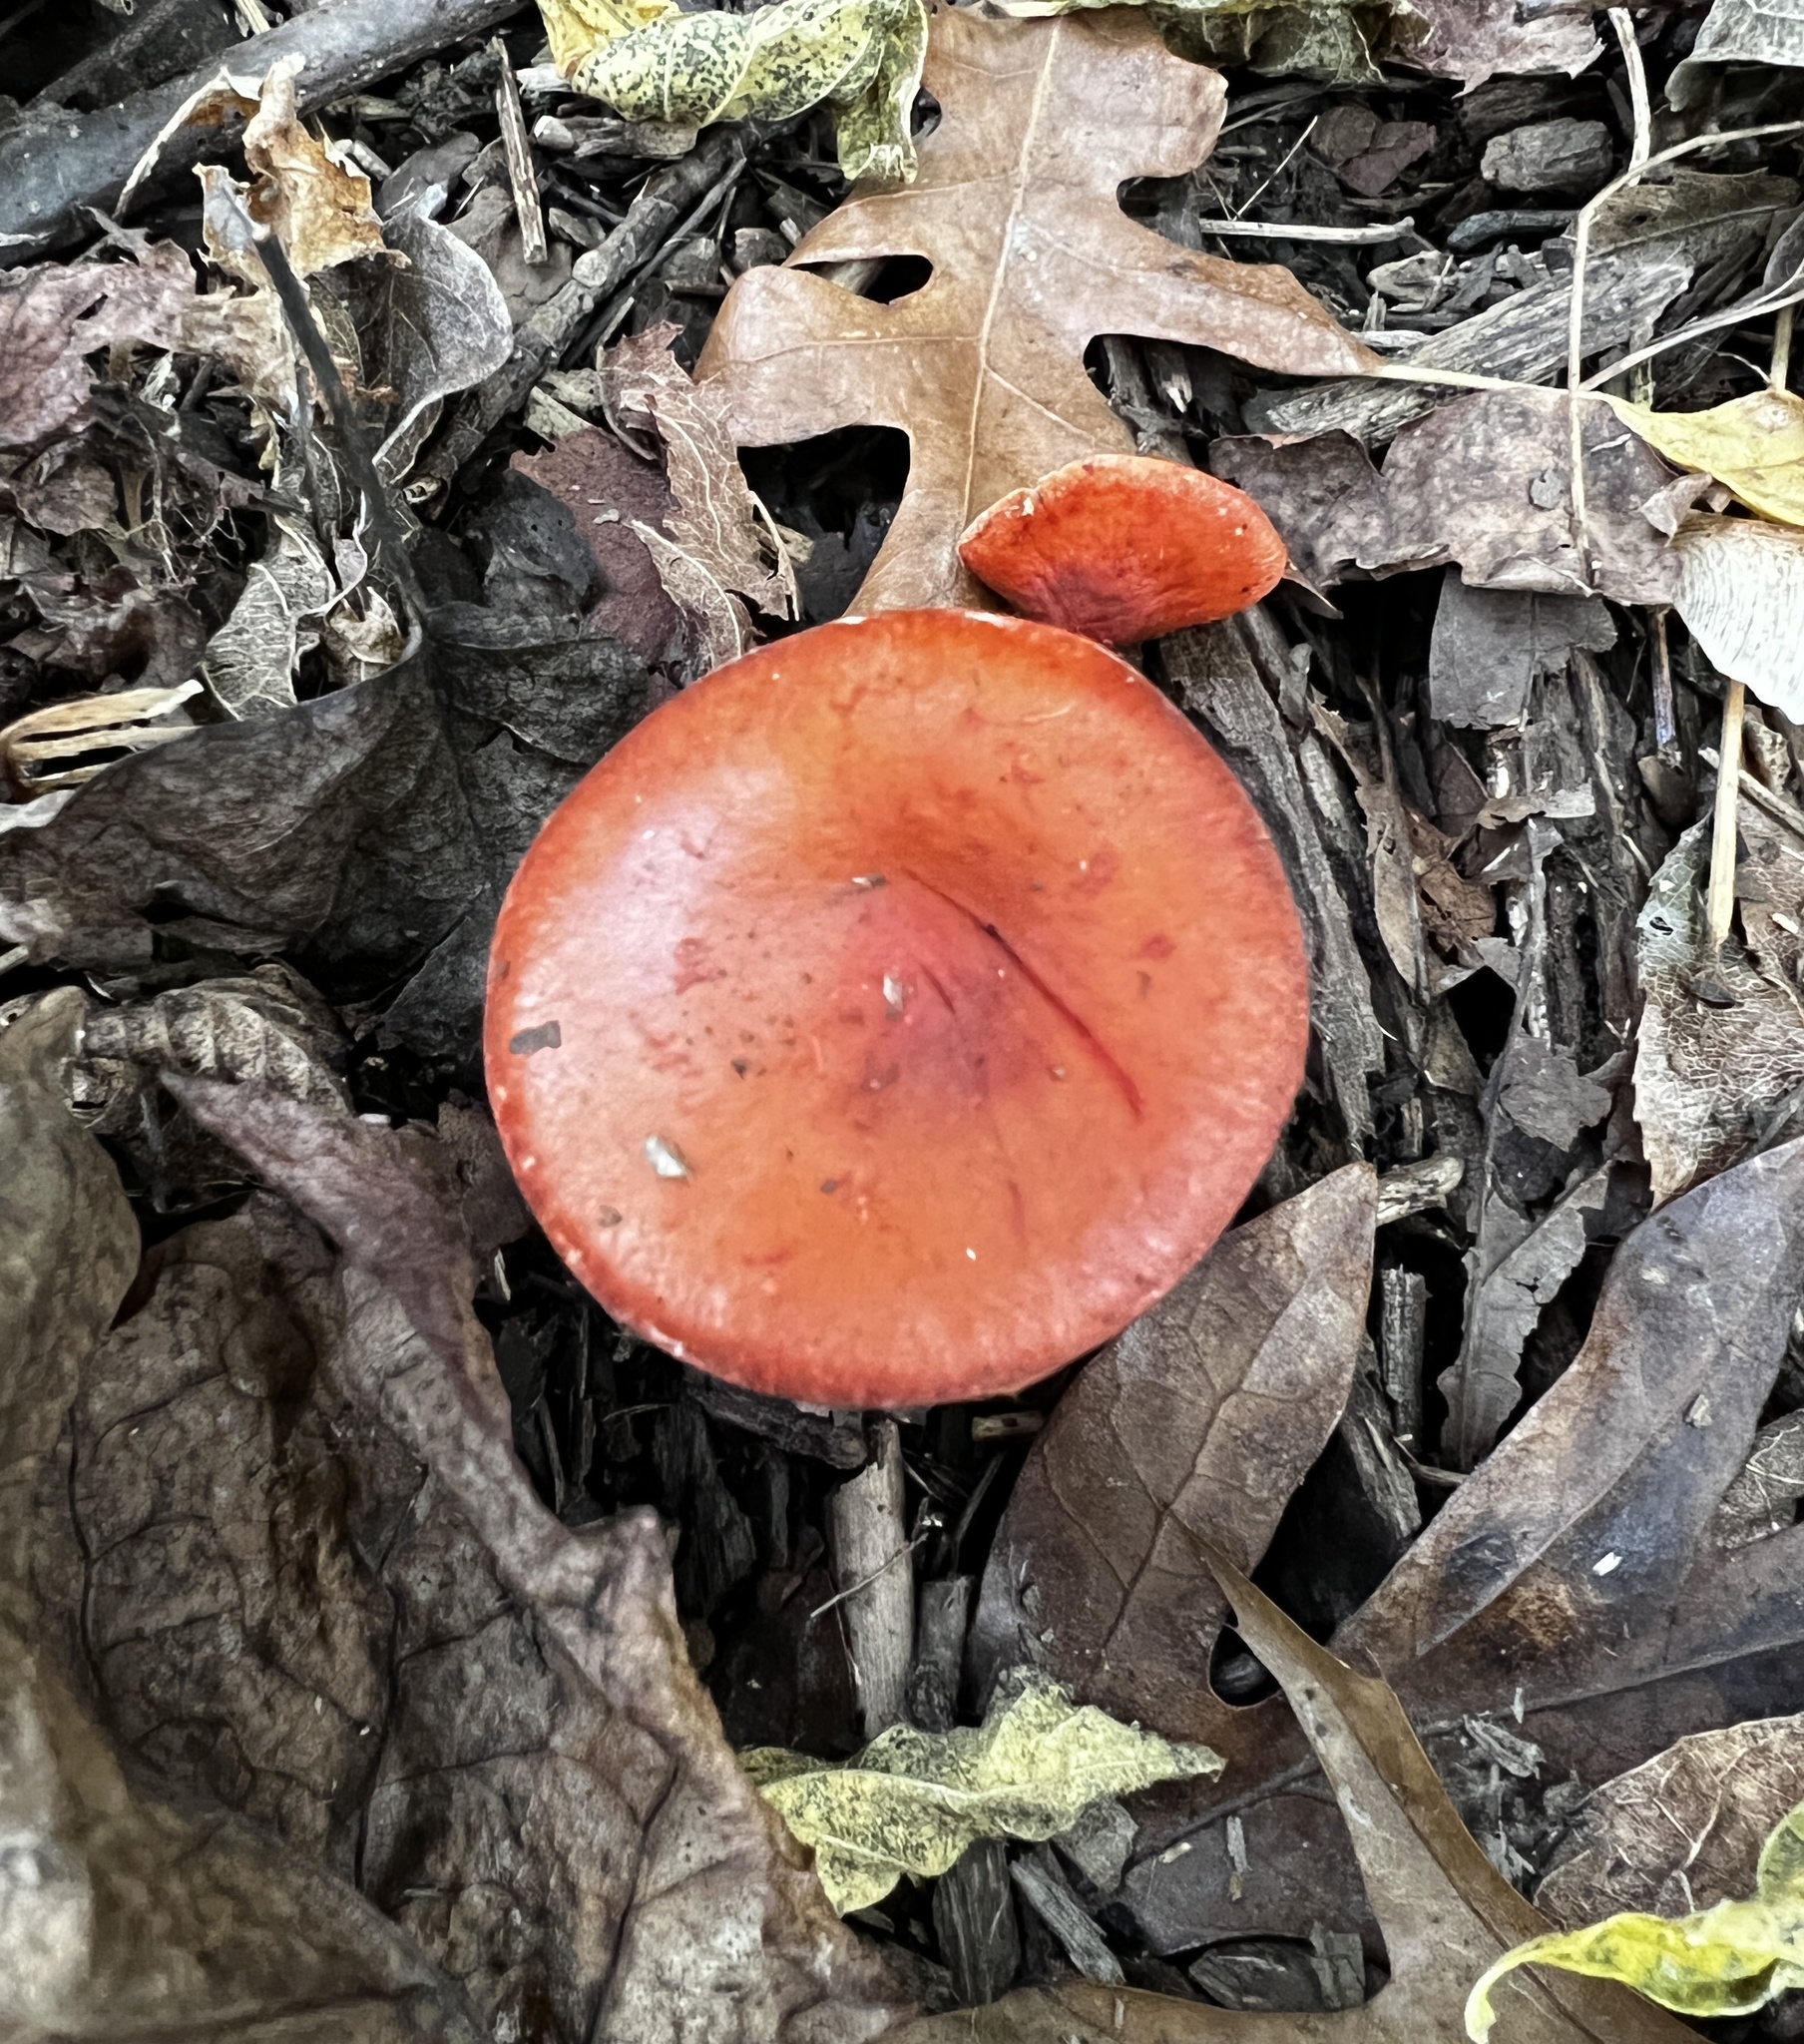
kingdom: Fungi
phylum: Basidiomycota
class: Agaricomycetes
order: Agaricales
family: Strophariaceae
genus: Leratiomyces
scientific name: Leratiomyces ceres
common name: Redlead roundhead
